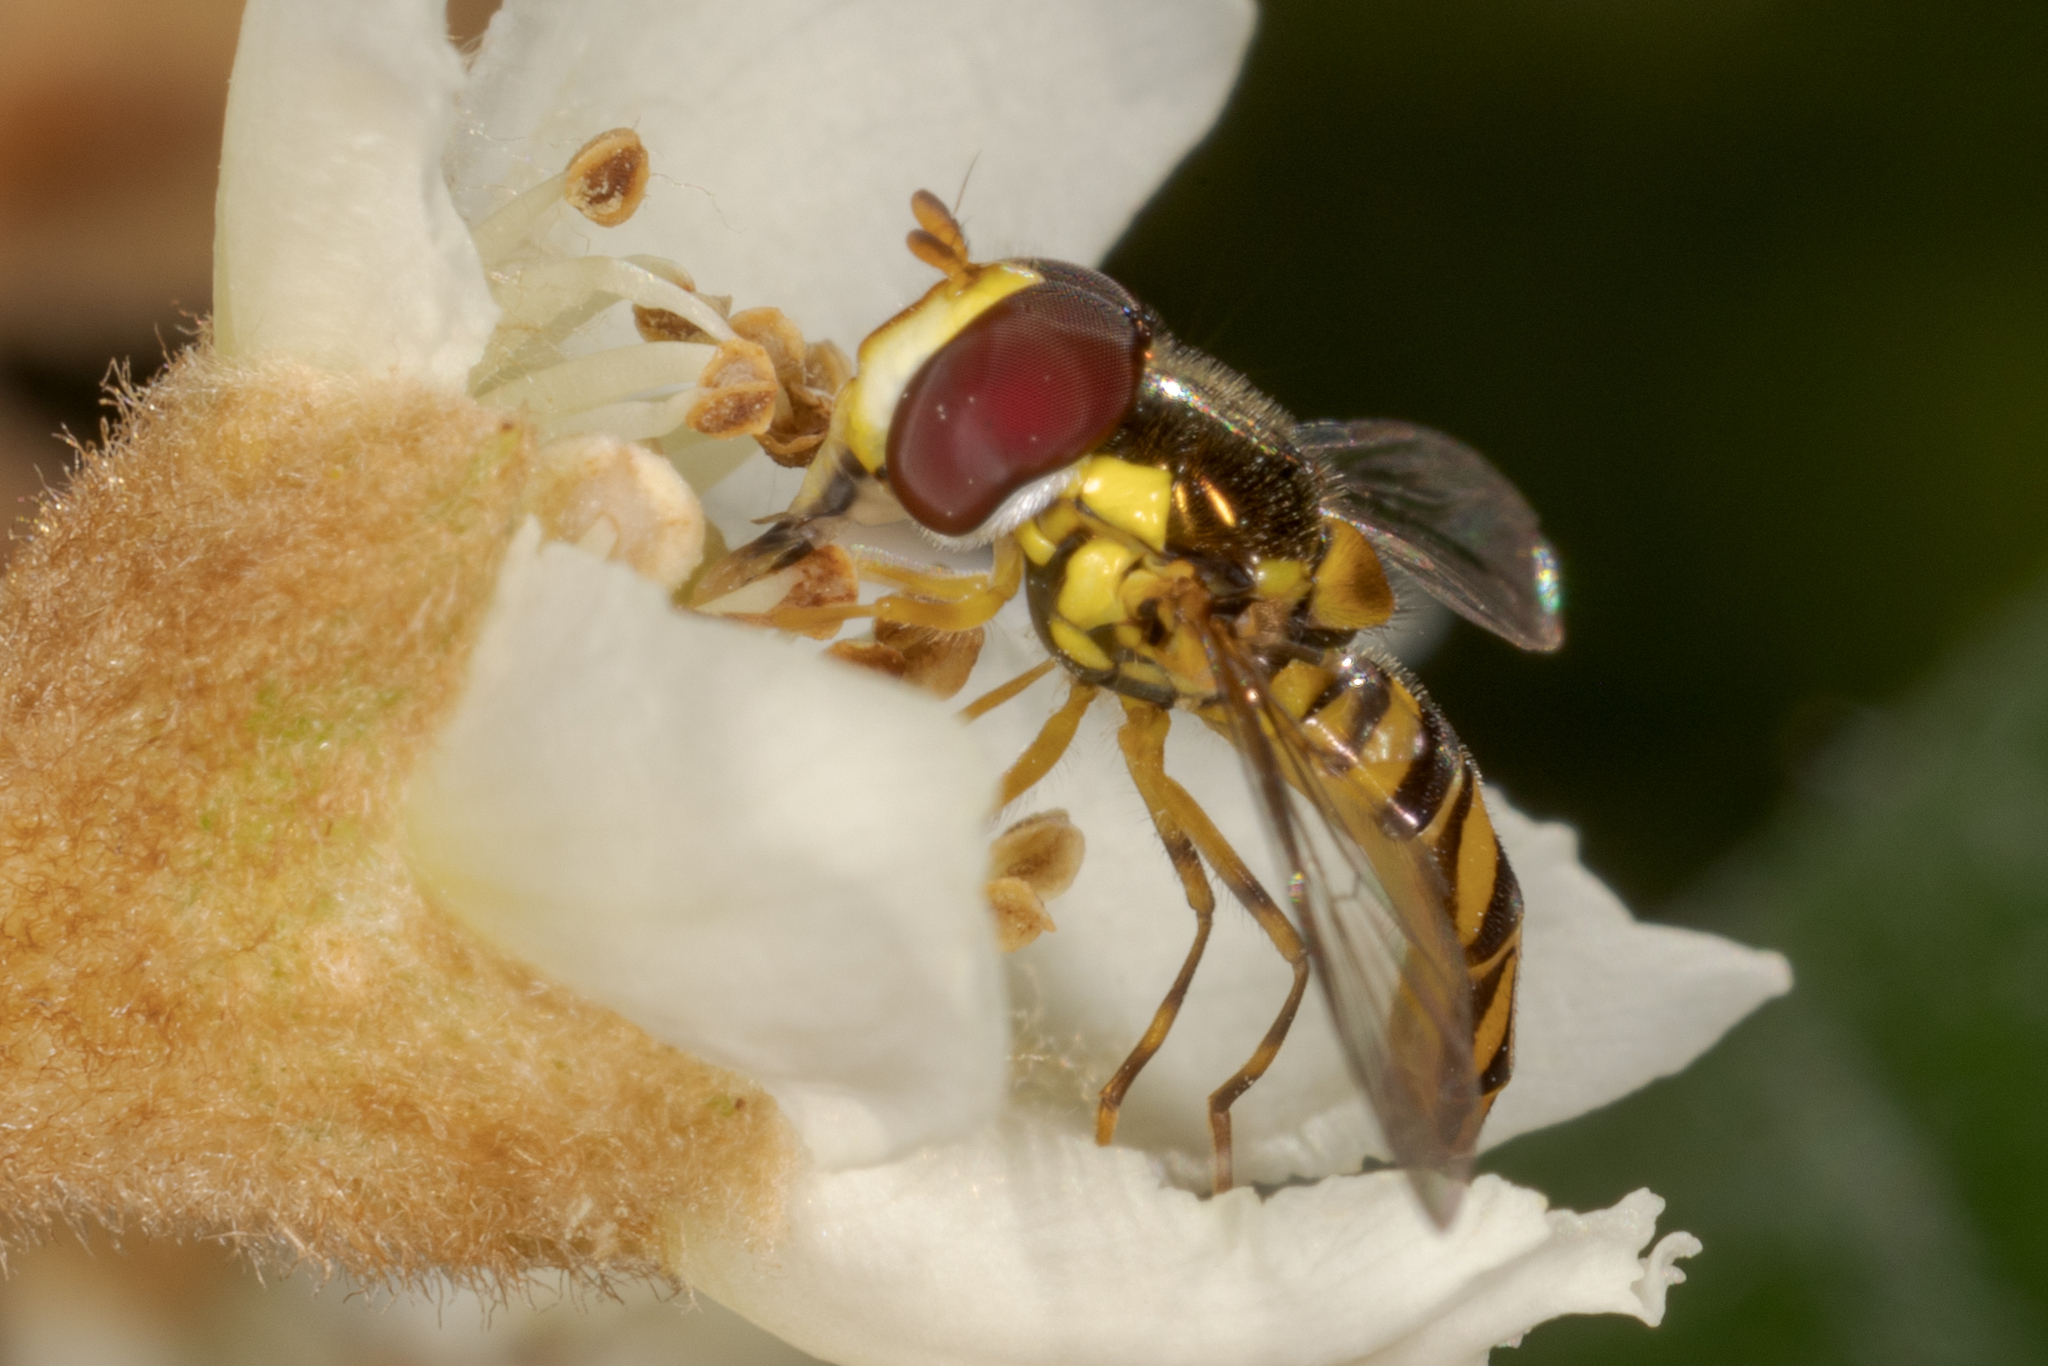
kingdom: Animalia
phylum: Arthropoda
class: Insecta
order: Diptera
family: Syrphidae
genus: Allograpta
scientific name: Allograpta obliqua
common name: Common oblique syrphid
